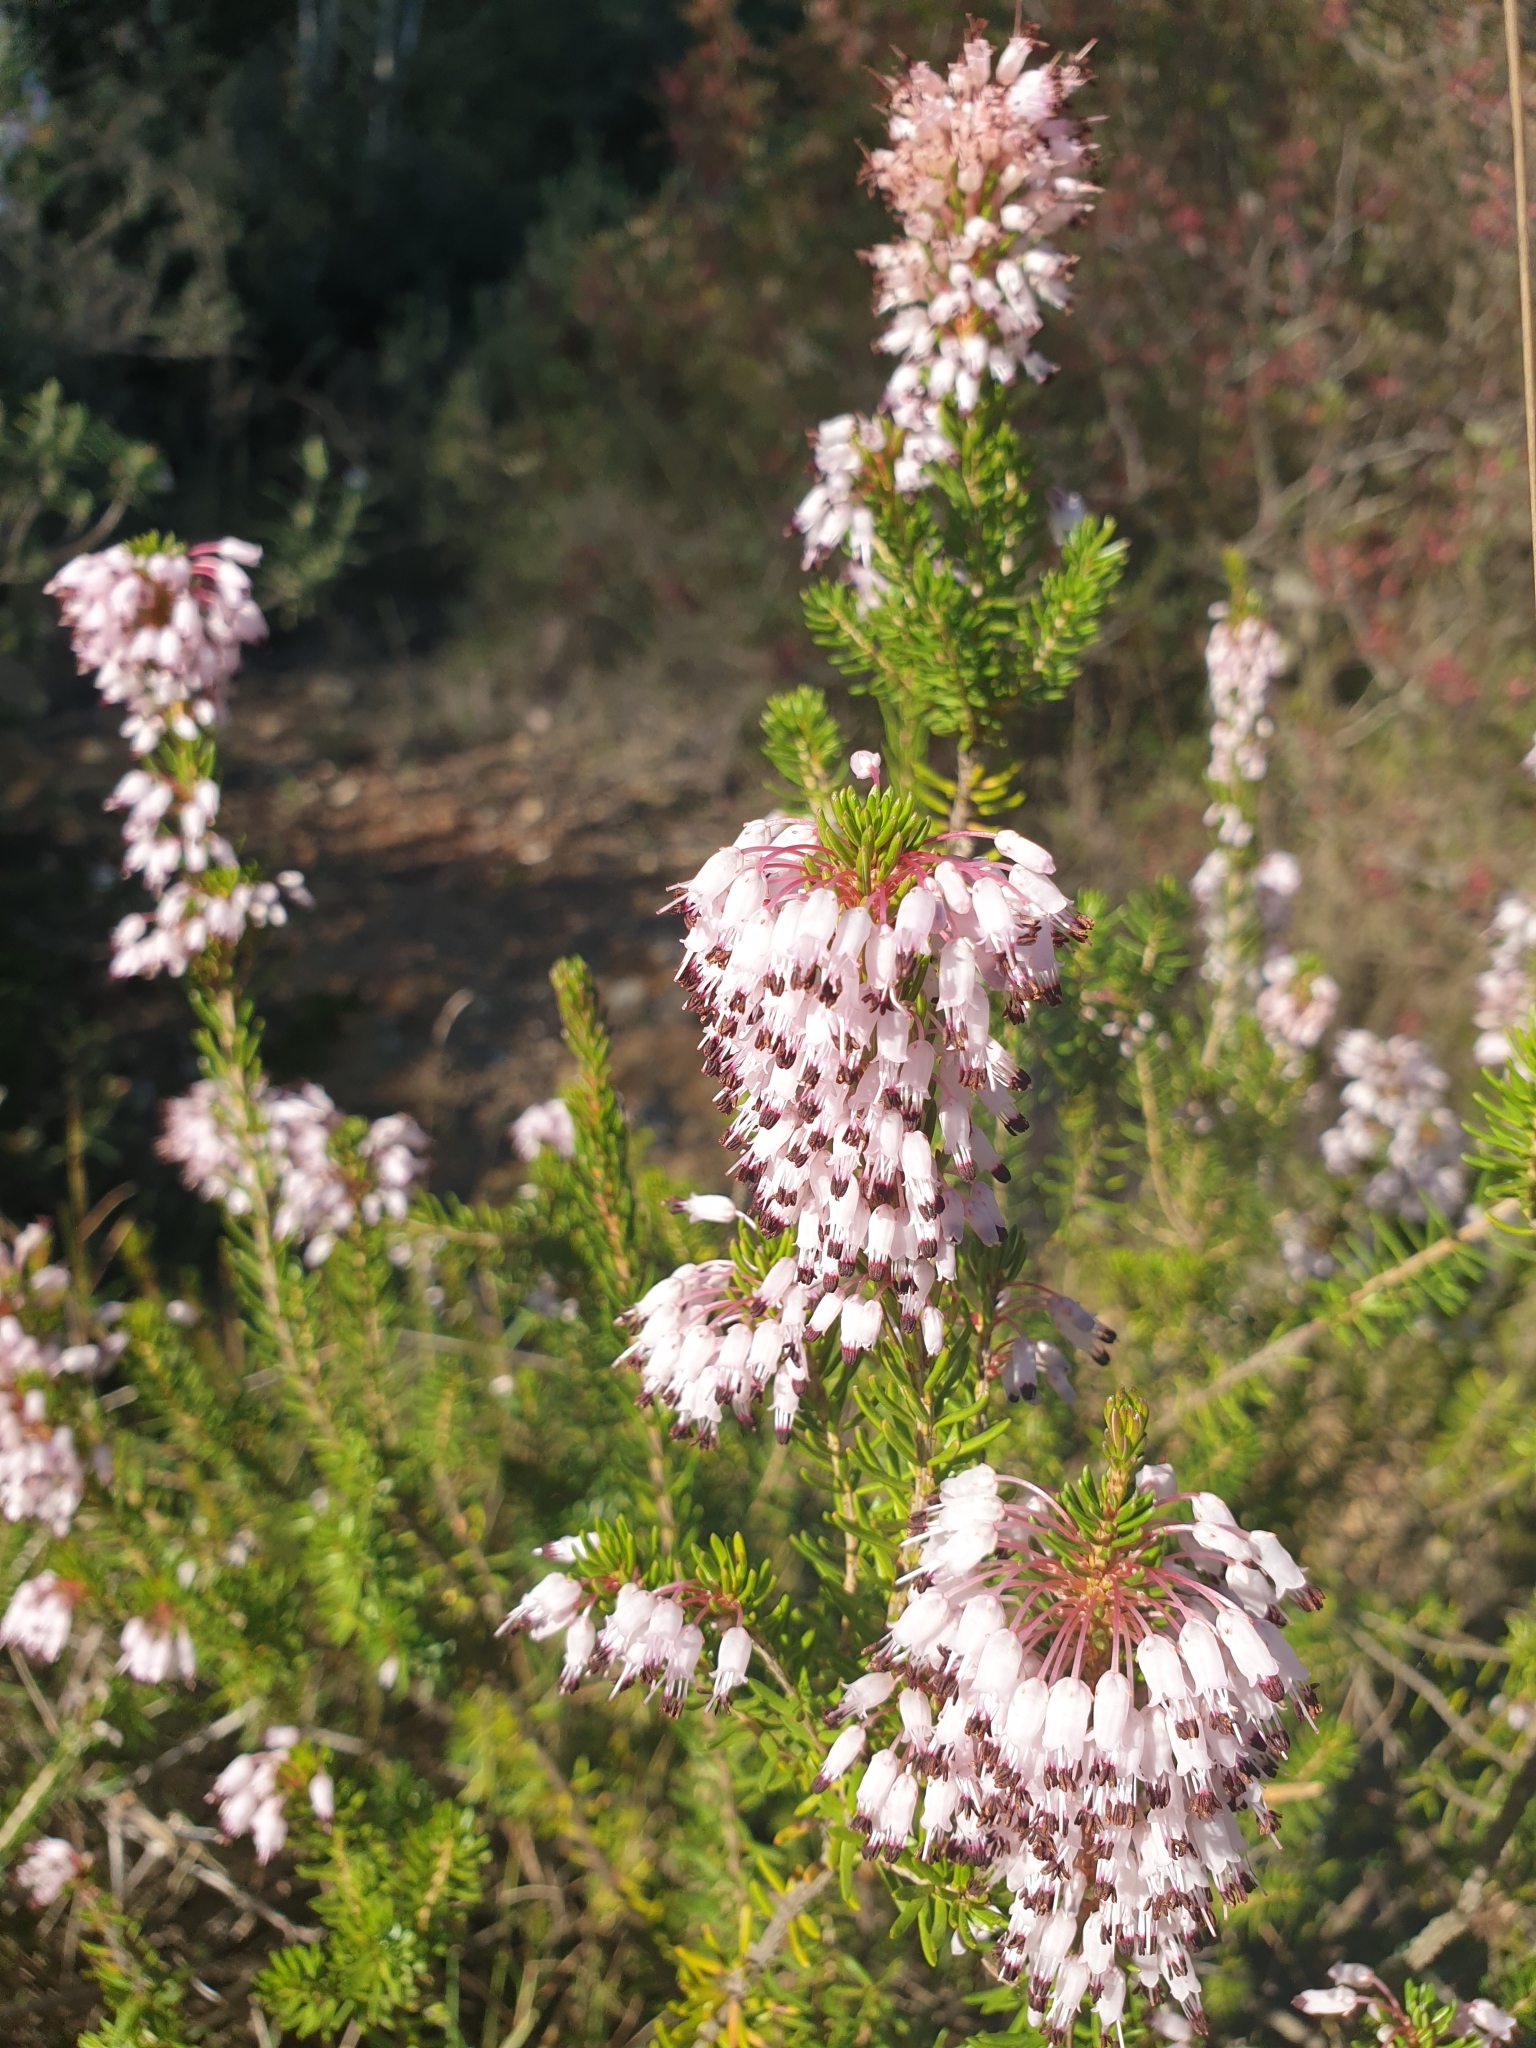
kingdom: Plantae
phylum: Tracheophyta
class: Magnoliopsida
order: Ericales
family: Ericaceae
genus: Erica
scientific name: Erica multiflora
